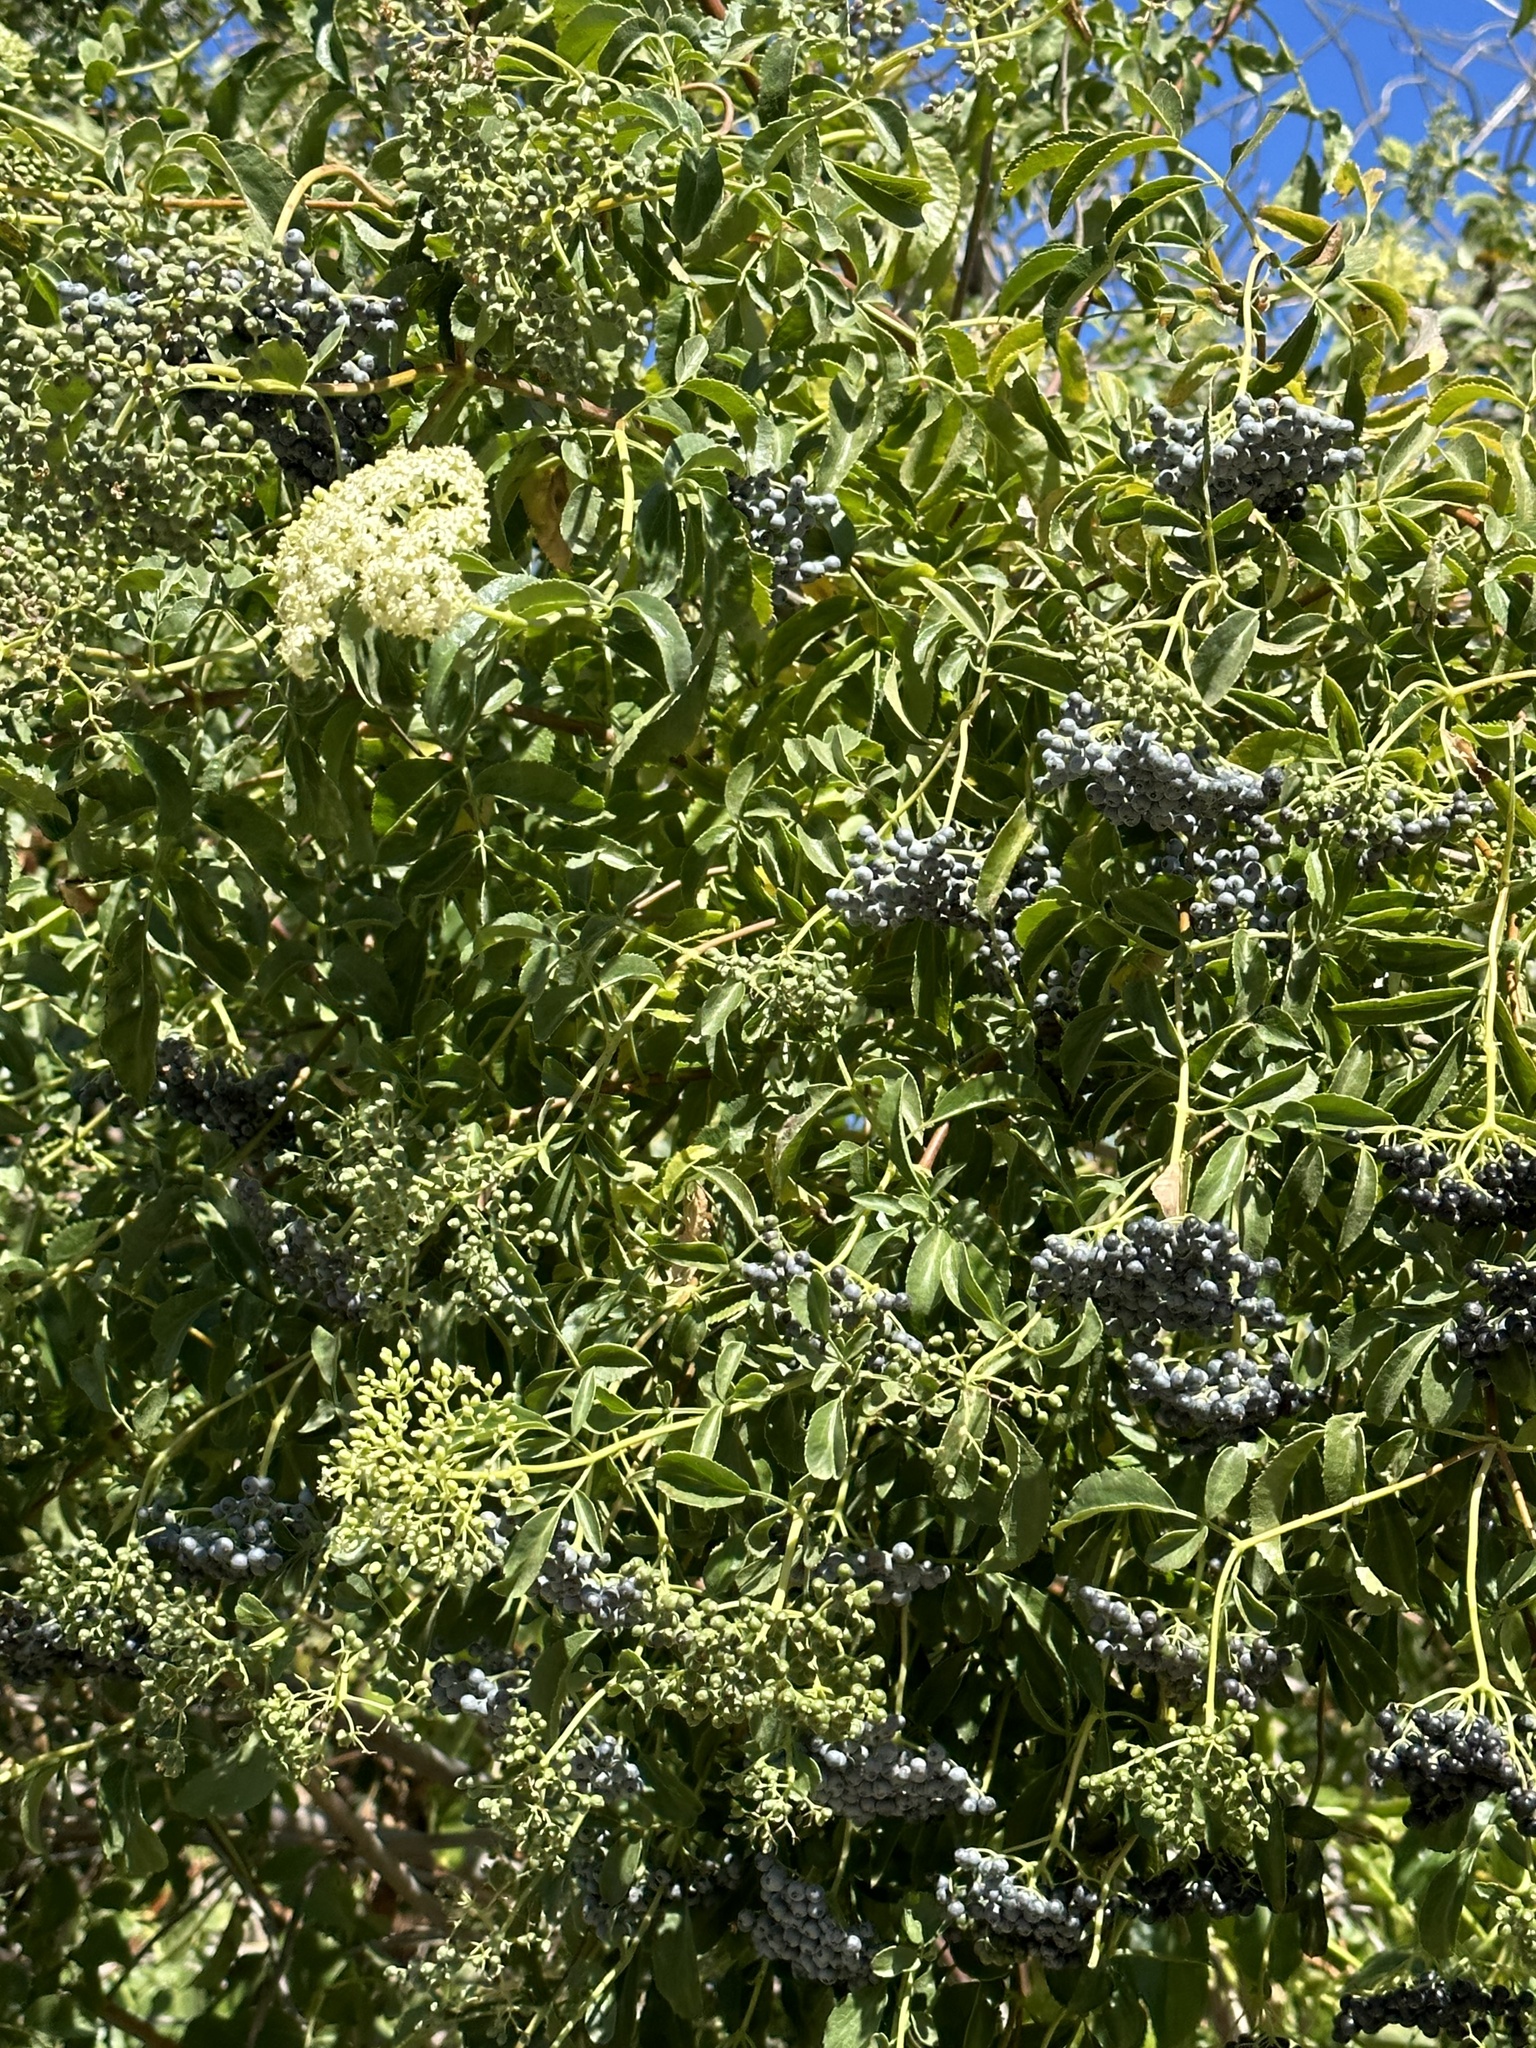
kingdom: Plantae
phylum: Tracheophyta
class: Magnoliopsida
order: Dipsacales
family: Viburnaceae
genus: Sambucus
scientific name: Sambucus cerulea
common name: Blue elder
